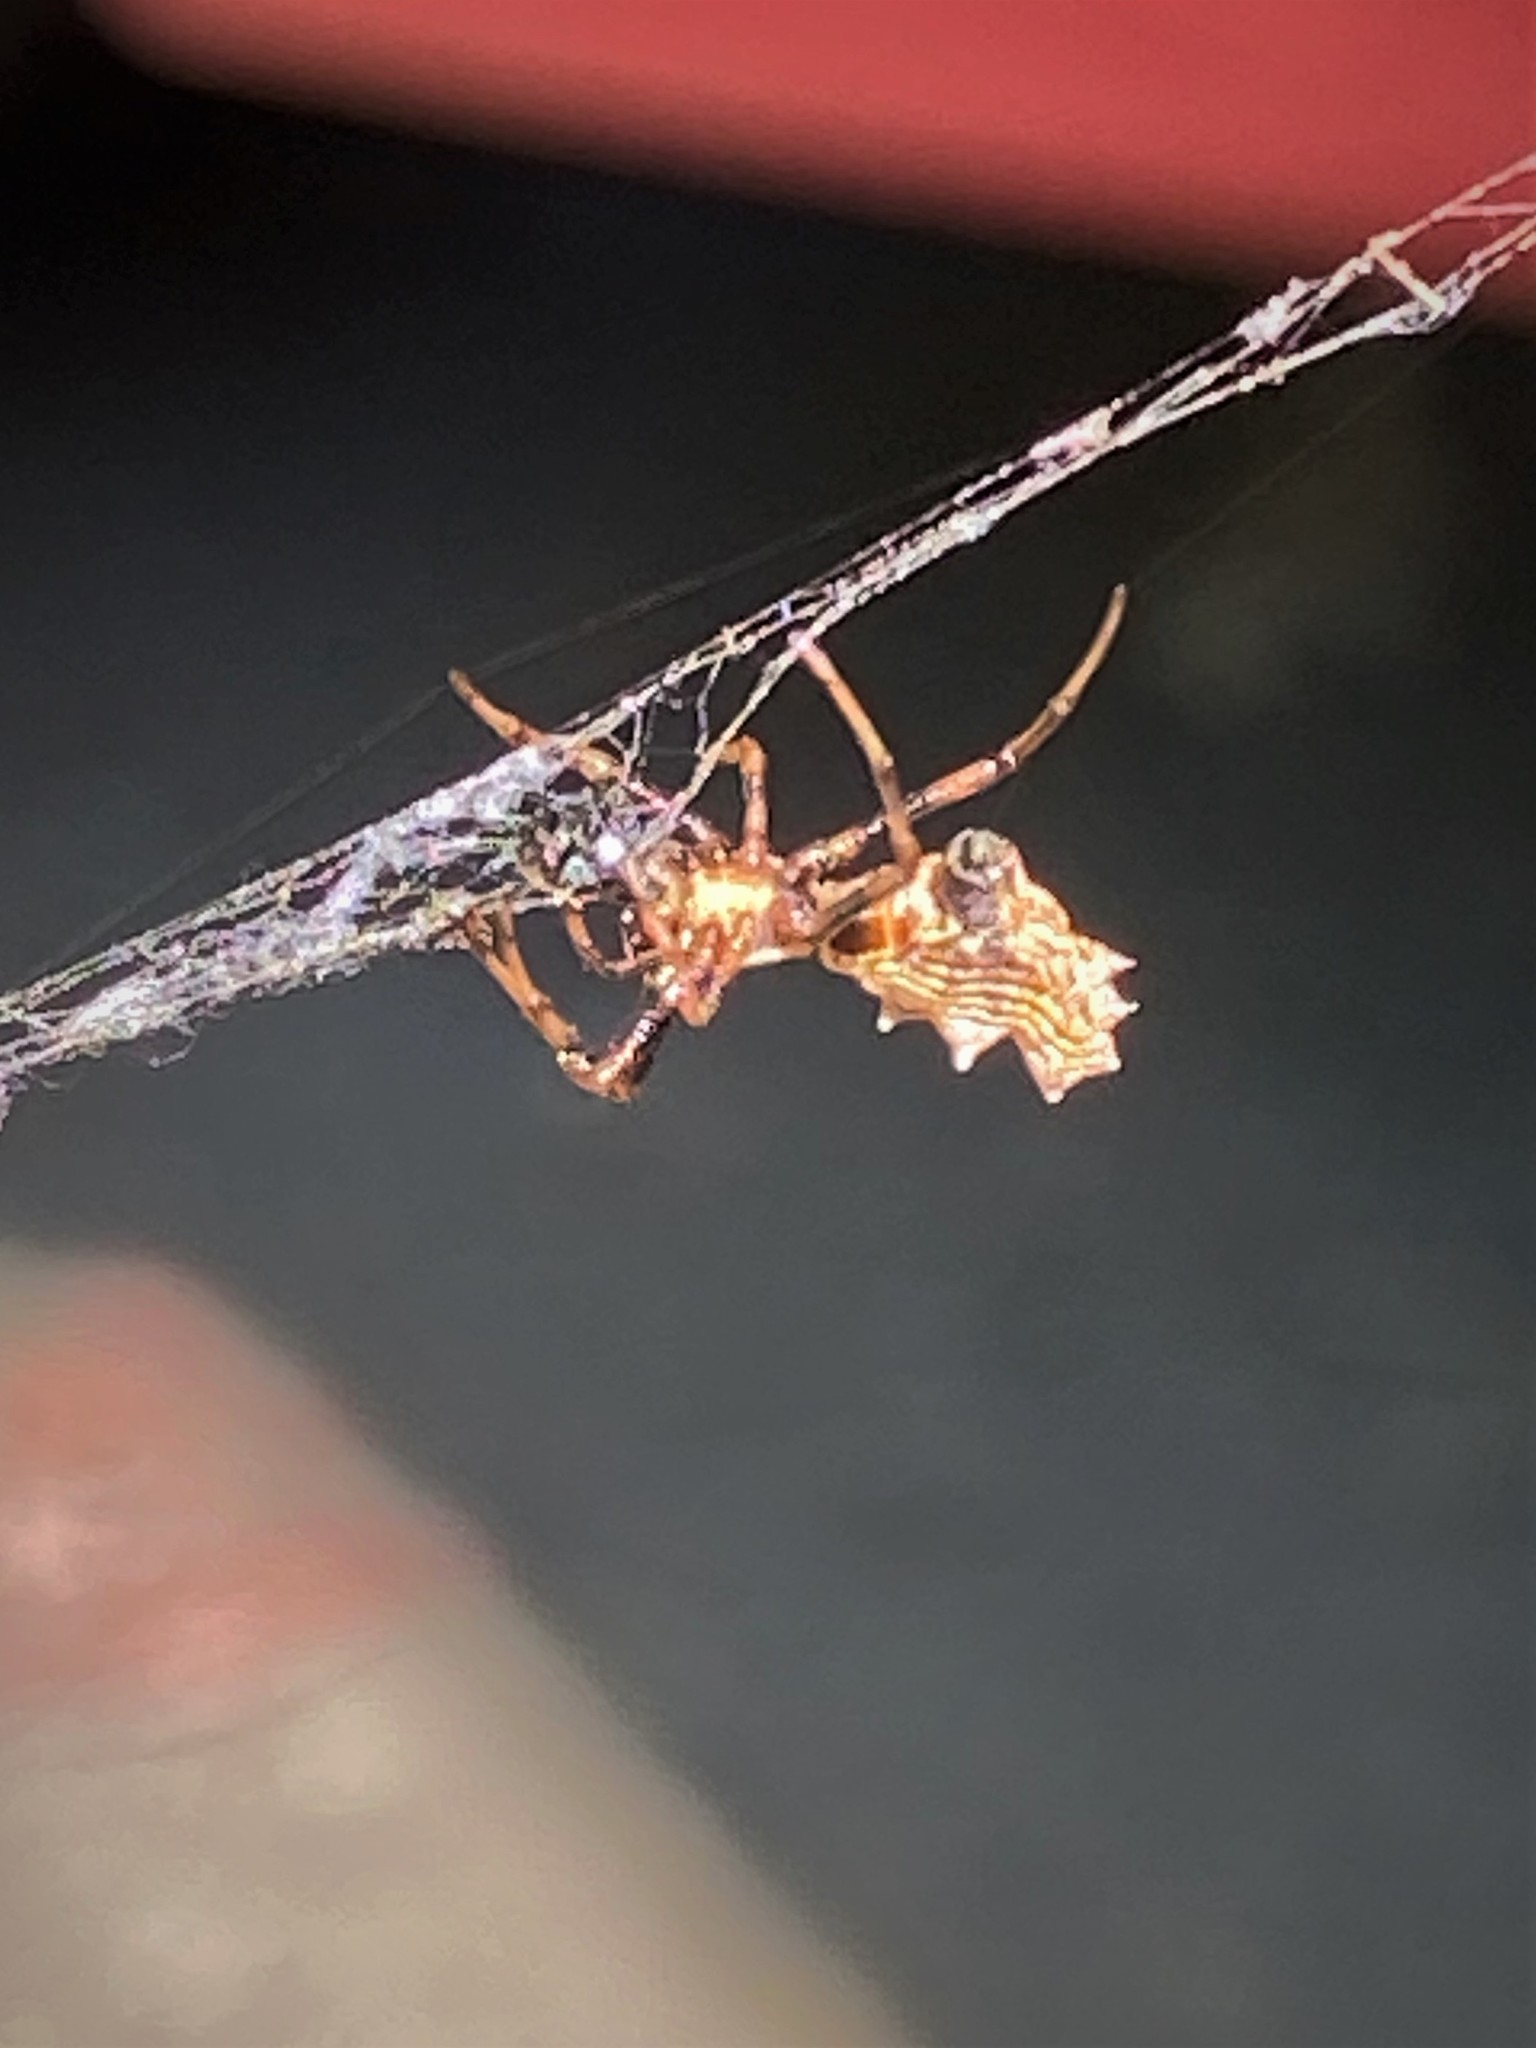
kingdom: Animalia
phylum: Arthropoda
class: Arachnida
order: Araneae
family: Araneidae
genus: Micrathena
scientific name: Micrathena gracilis
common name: Orb weavers
